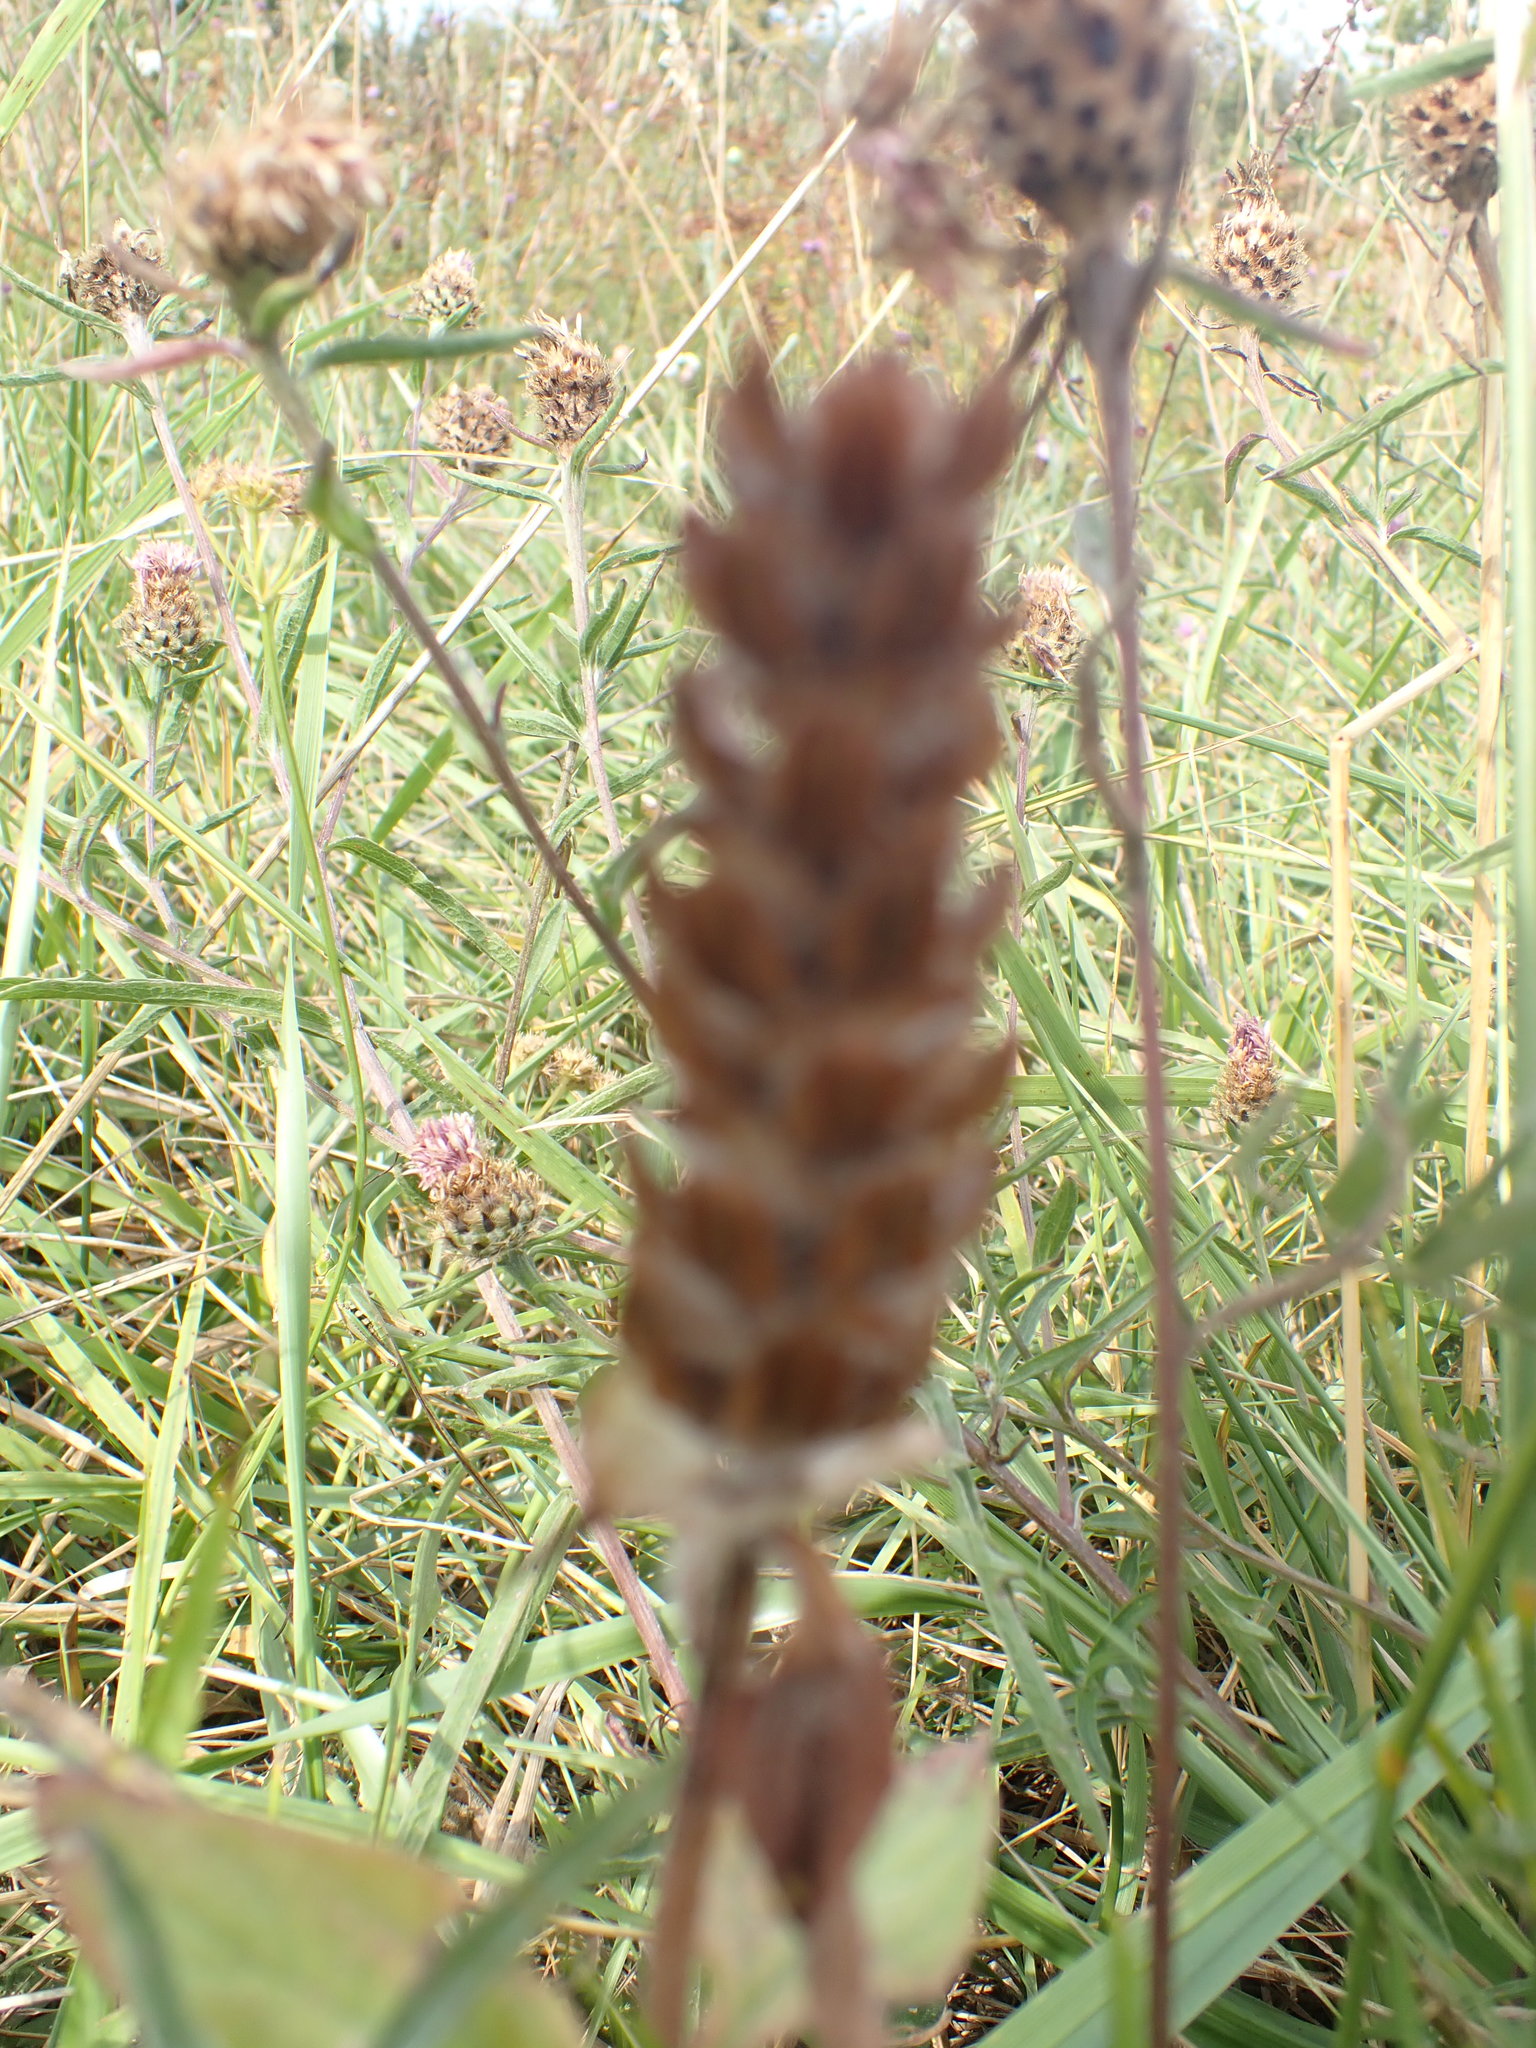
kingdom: Plantae
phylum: Tracheophyta
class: Magnoliopsida
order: Lamiales
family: Lamiaceae
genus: Prunella
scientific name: Prunella vulgaris
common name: Heal-all
